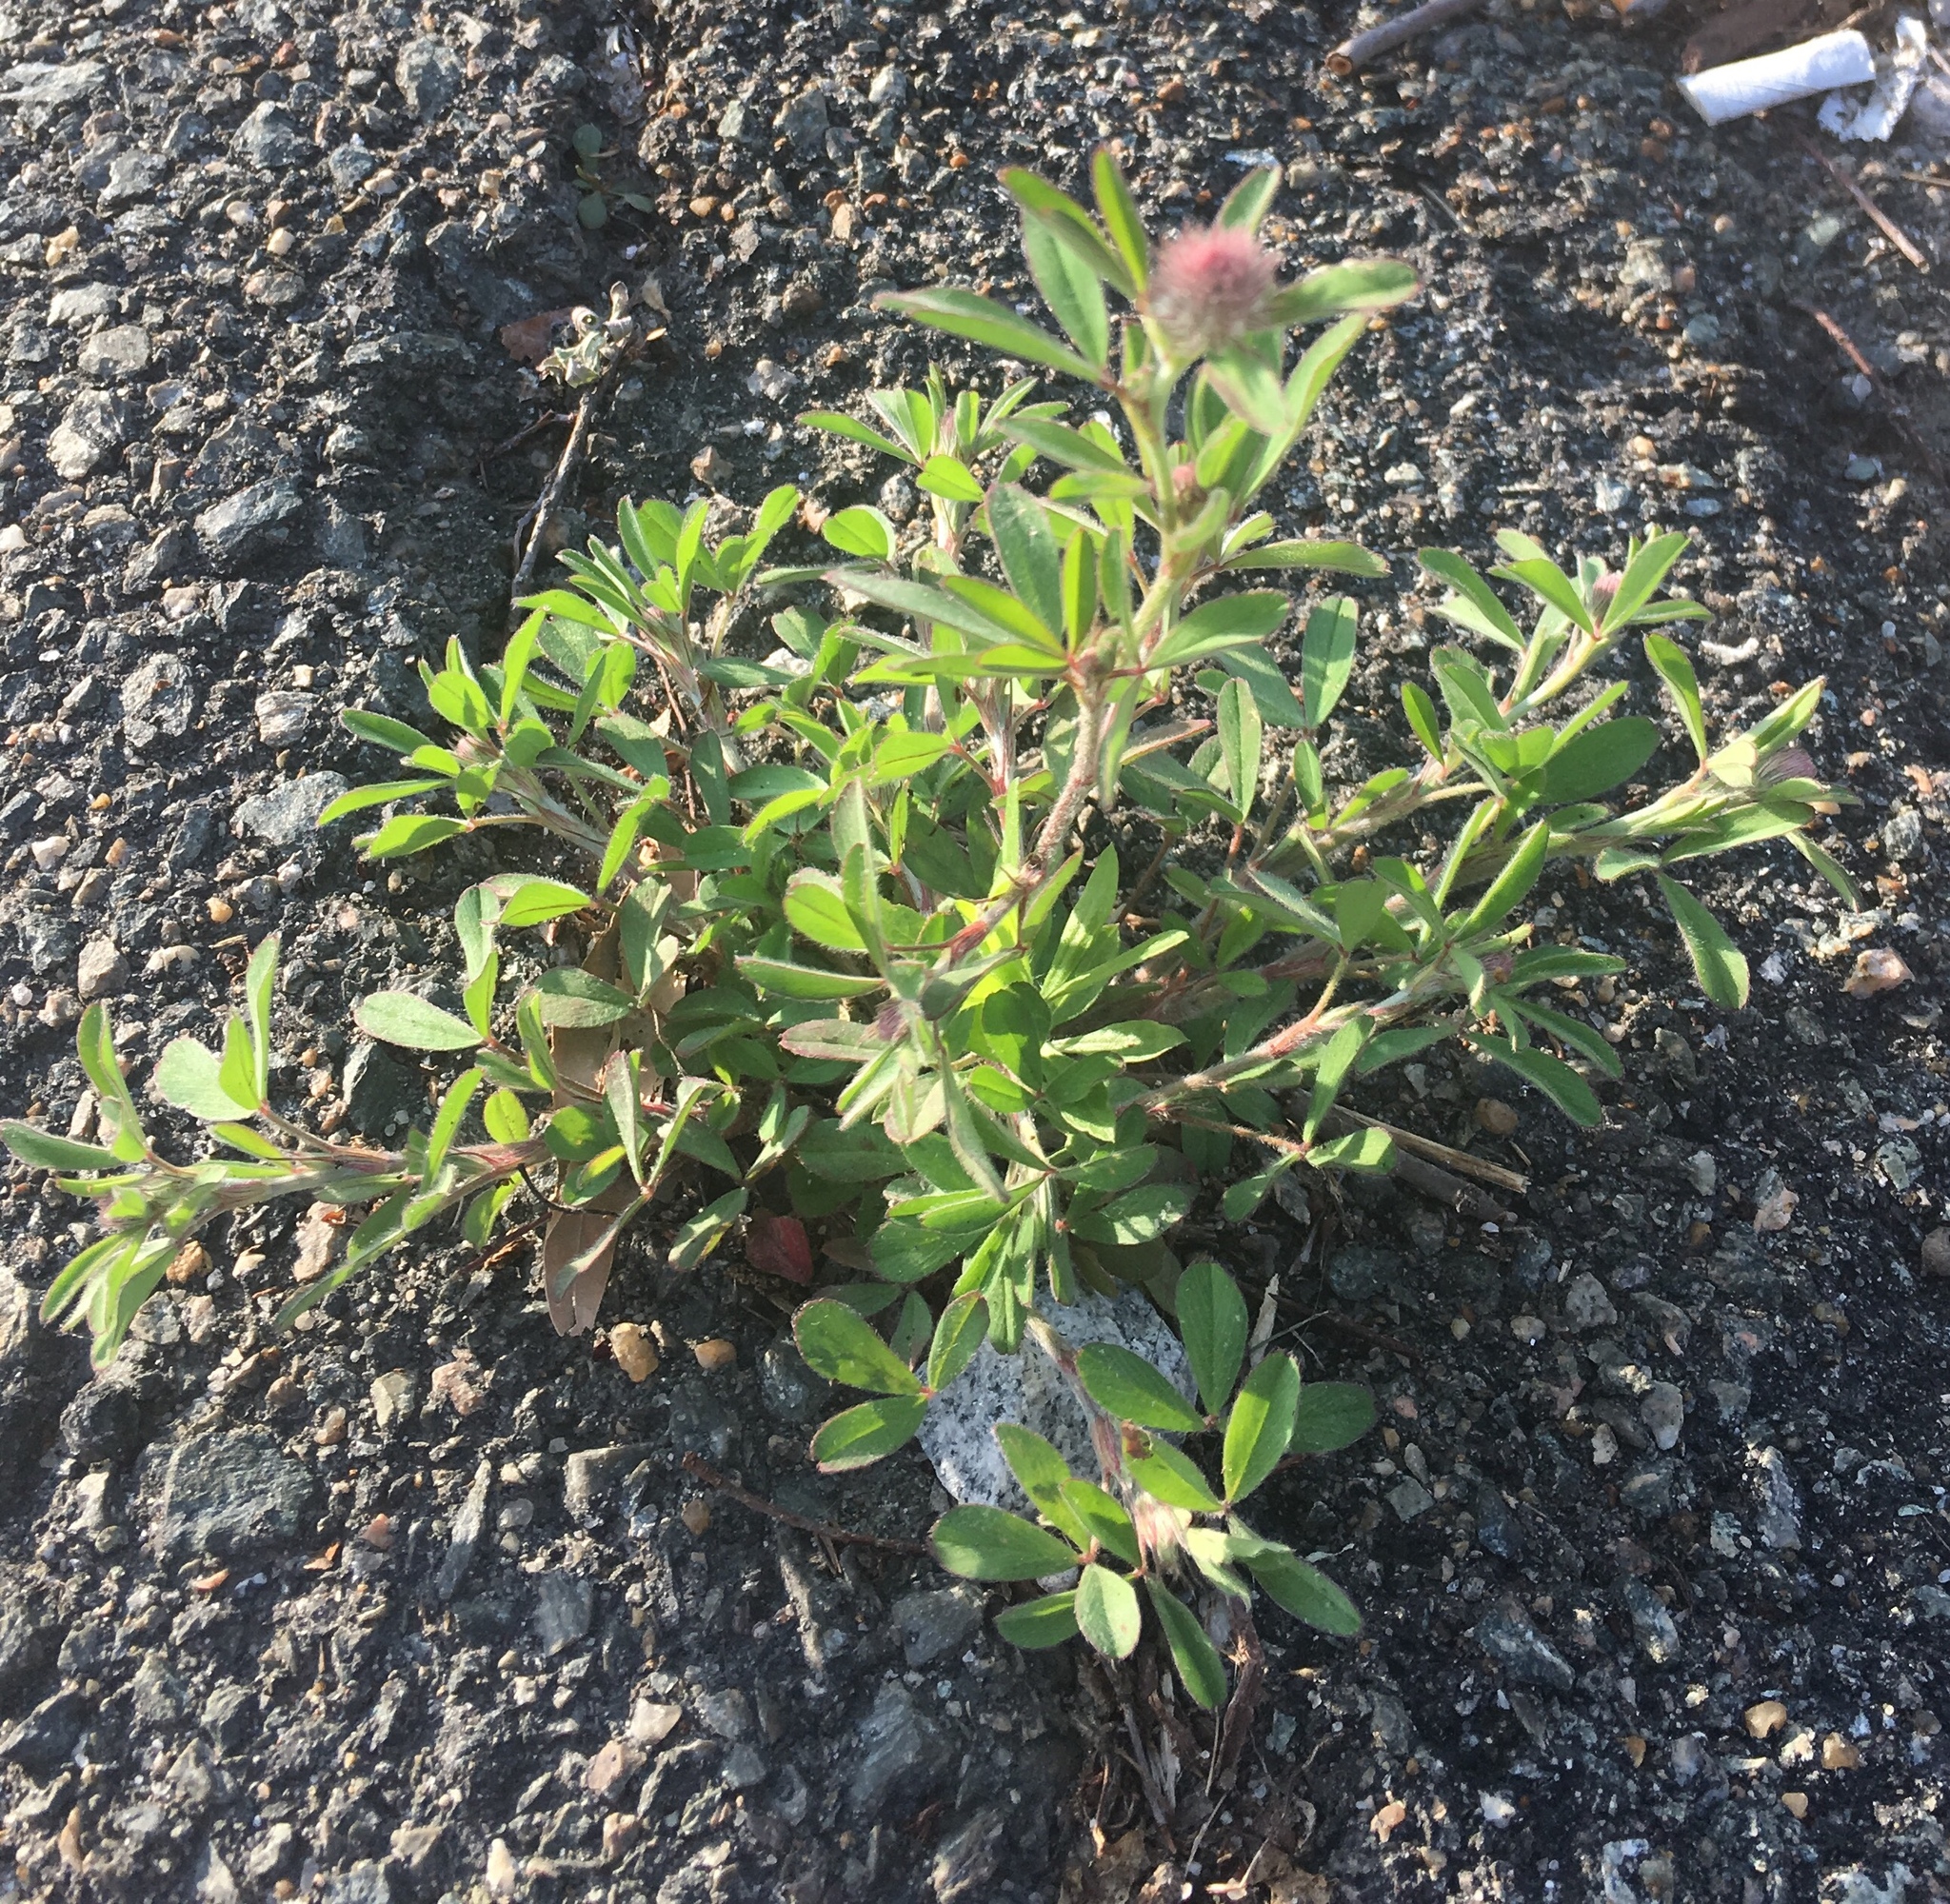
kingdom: Plantae
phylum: Tracheophyta
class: Magnoliopsida
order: Fabales
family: Fabaceae
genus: Trifolium
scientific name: Trifolium arvense
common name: Hare's-foot clover
